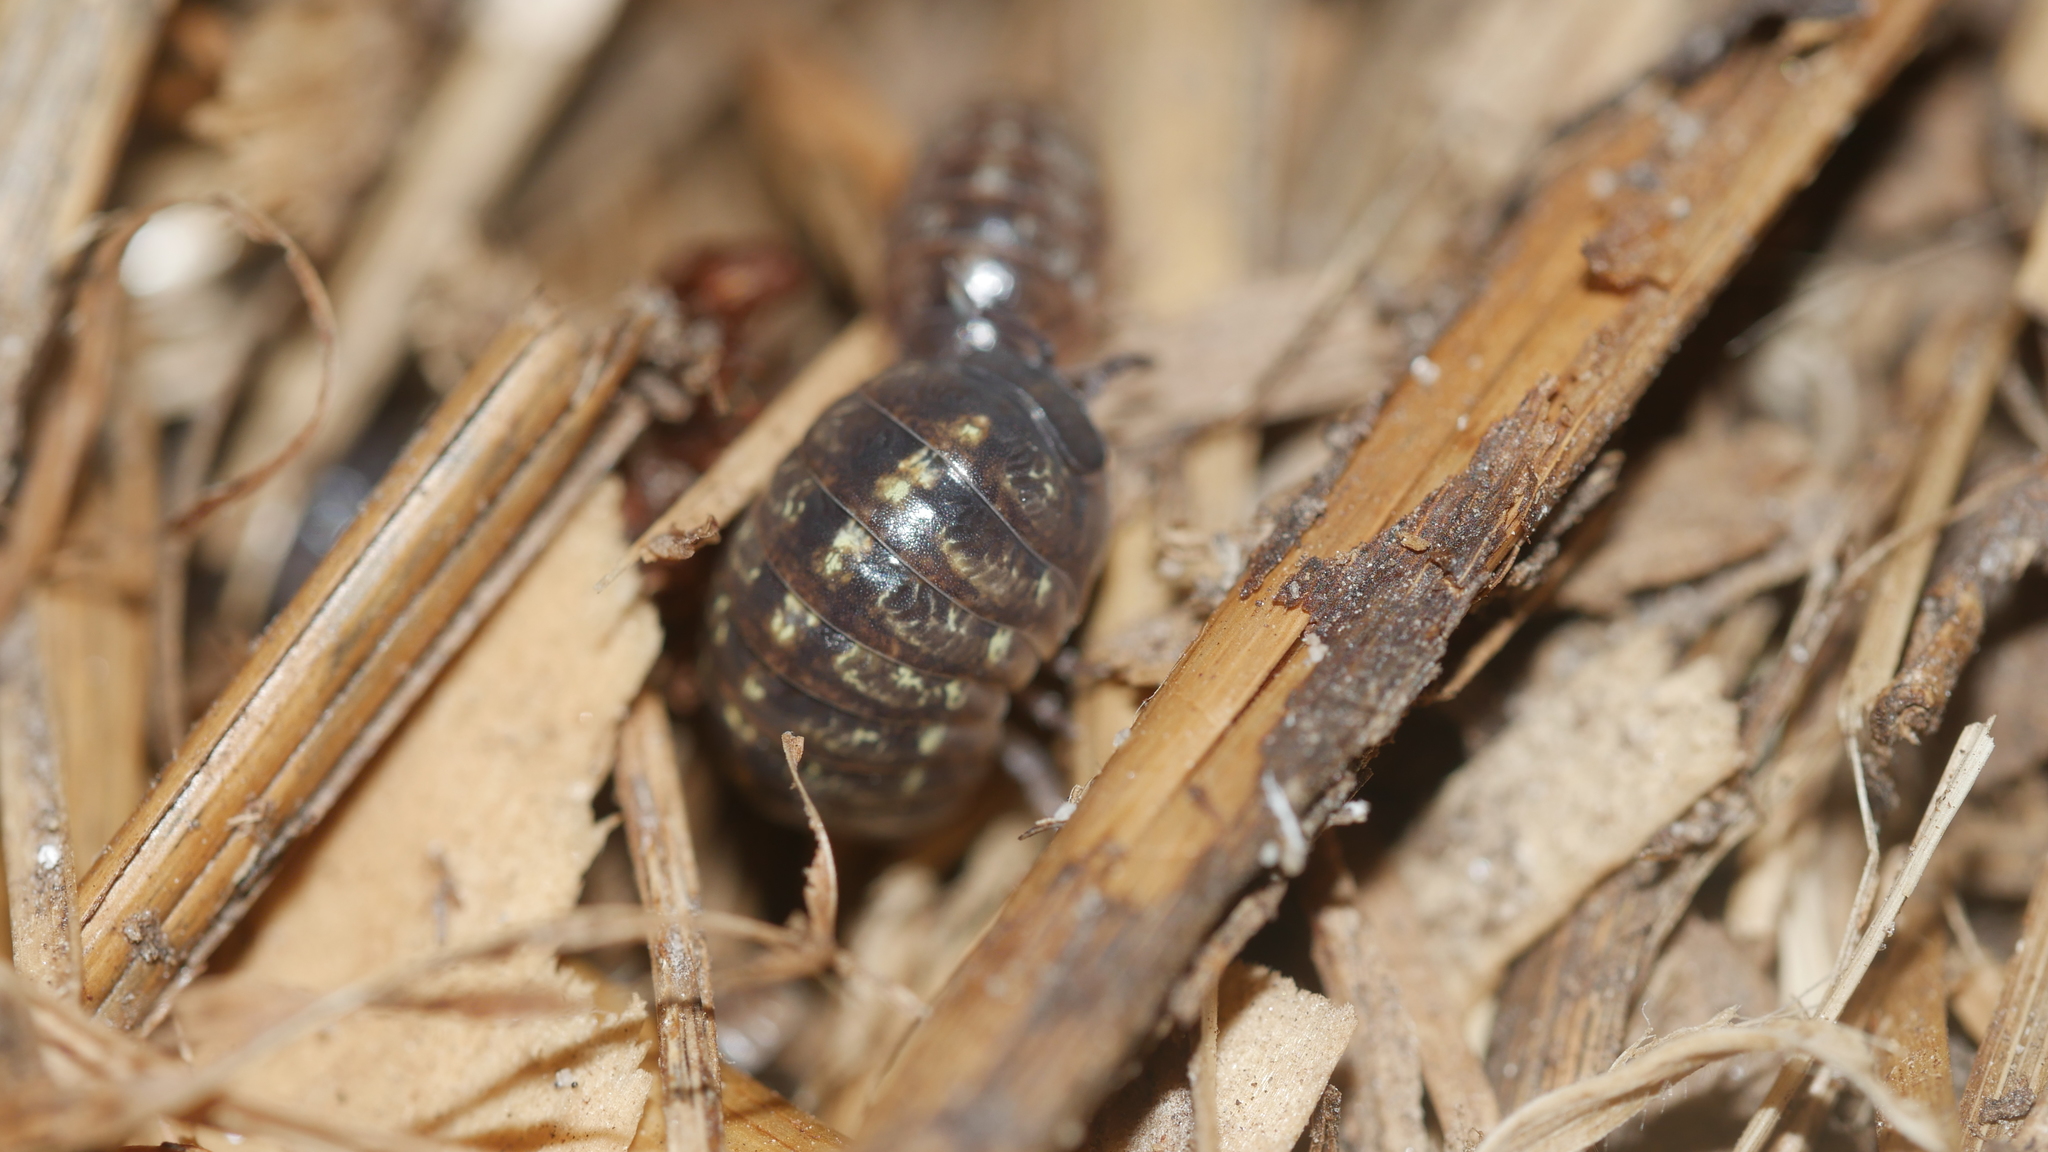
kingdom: Animalia
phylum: Arthropoda
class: Malacostraca
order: Isopoda
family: Armadillidiidae
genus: Armadillidium
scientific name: Armadillidium vulgare
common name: Common pill woodlouse
